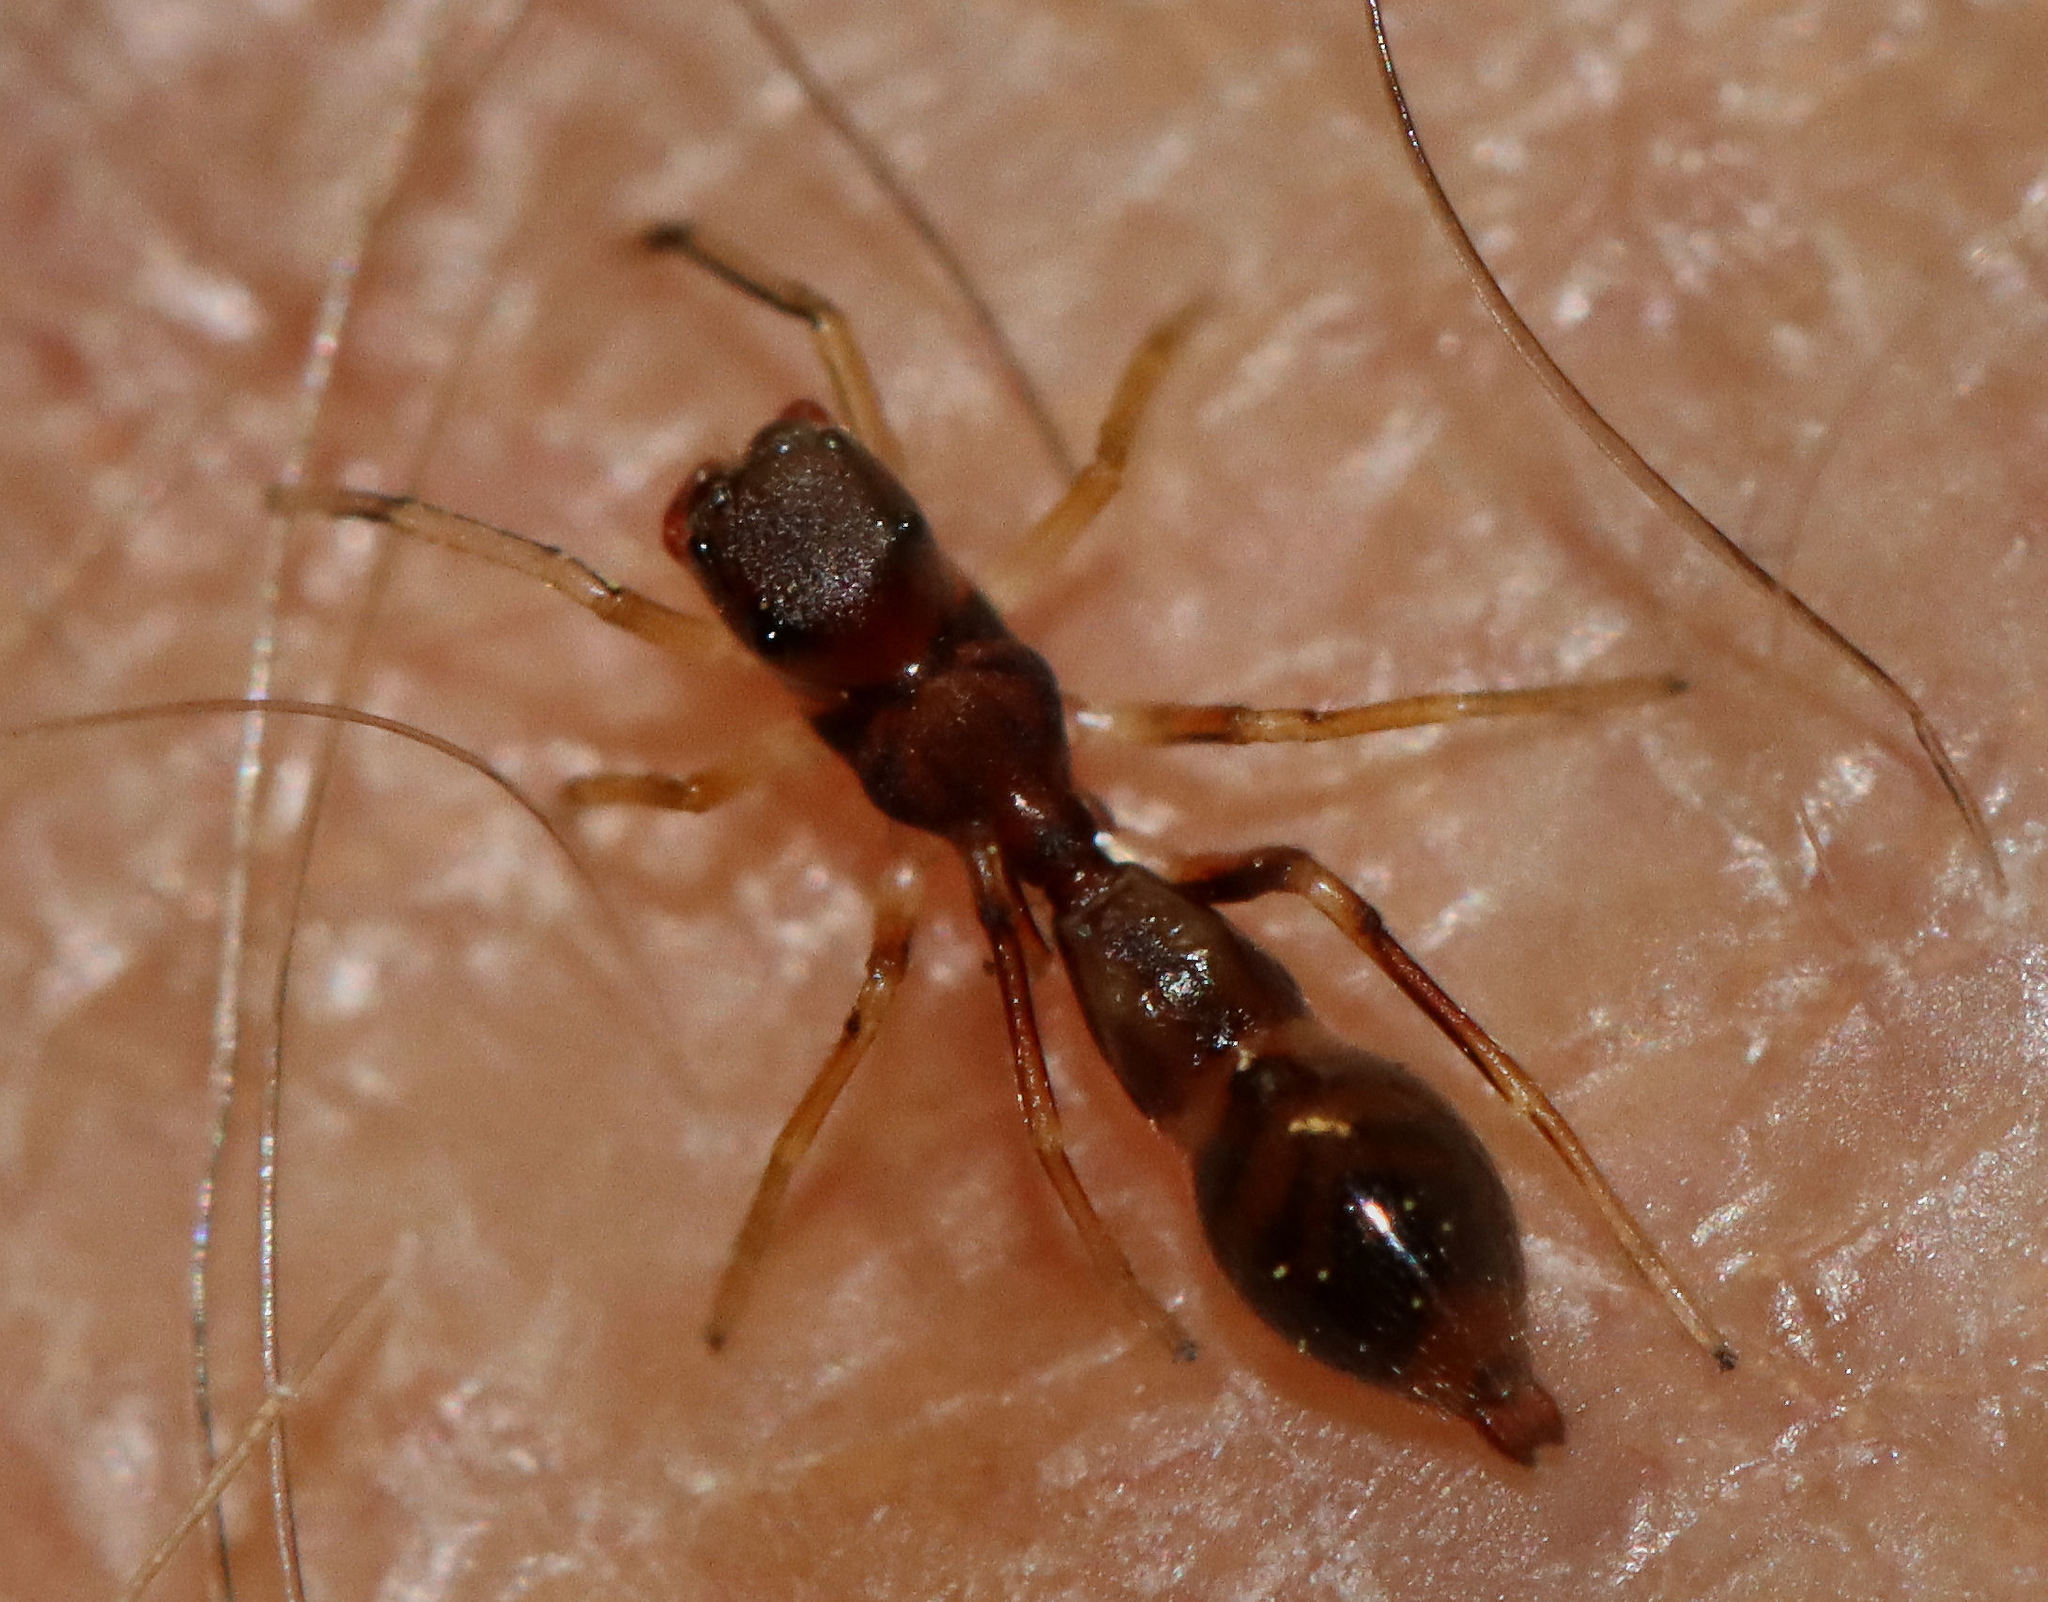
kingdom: Animalia
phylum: Arthropoda
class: Arachnida
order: Araneae
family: Salticidae
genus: Synemosyna
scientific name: Synemosyna formica
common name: Slender ant-mimic jumping spider
